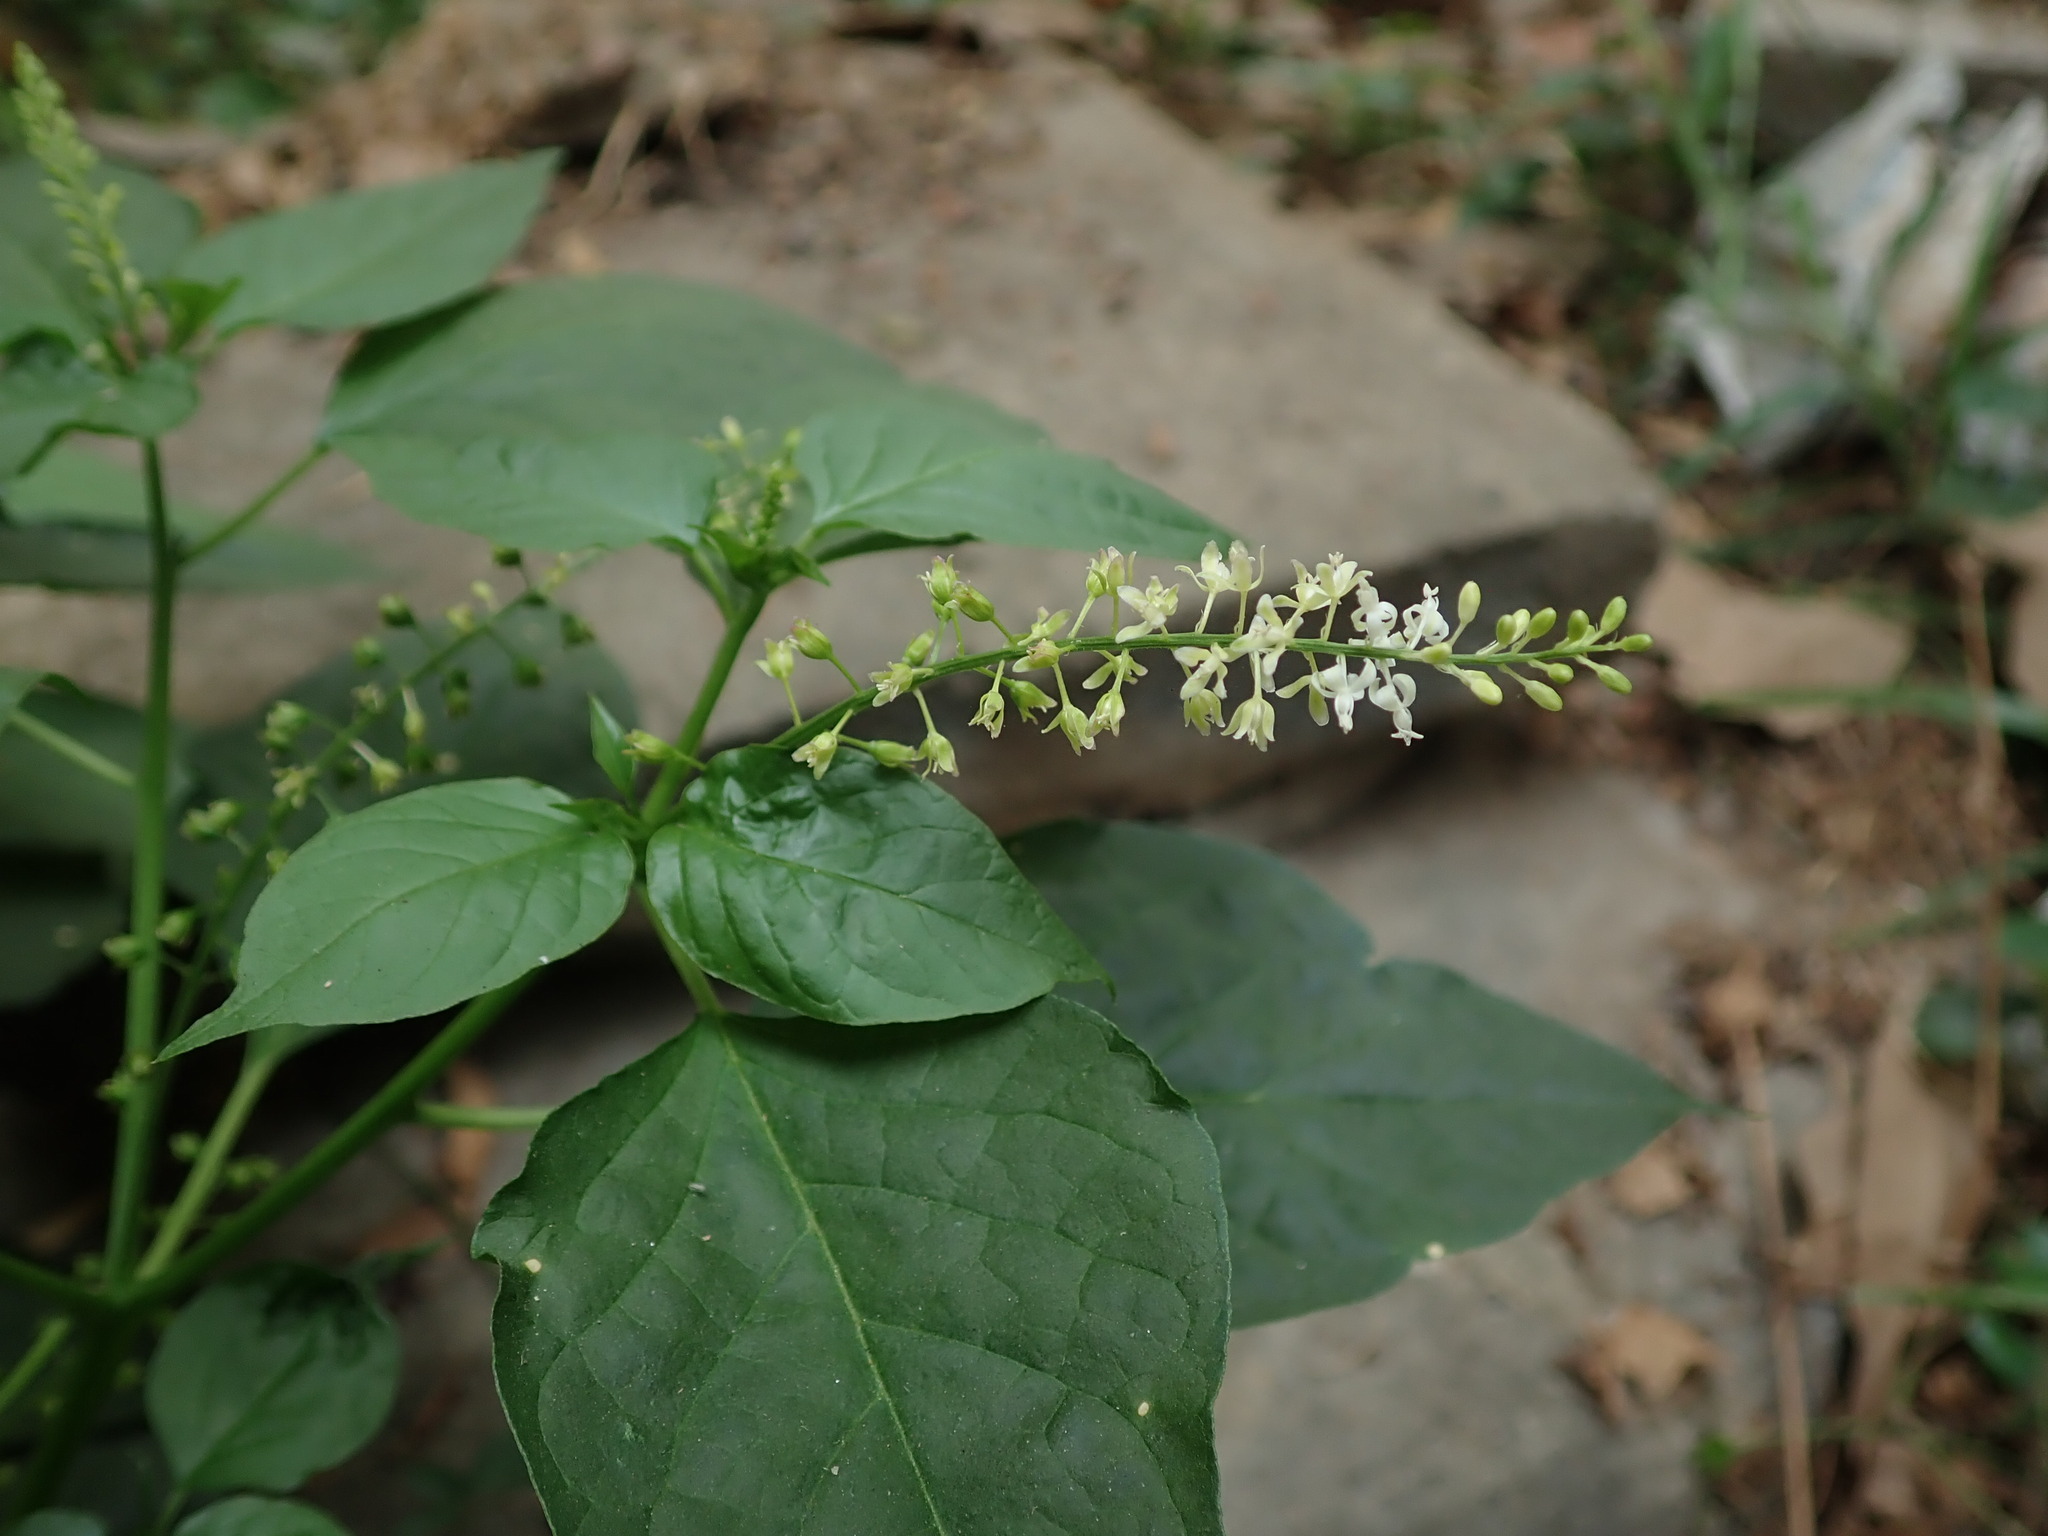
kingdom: Plantae
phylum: Tracheophyta
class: Magnoliopsida
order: Caryophyllales
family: Phytolaccaceae
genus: Rivina
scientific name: Rivina humilis
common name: Rougeplant
